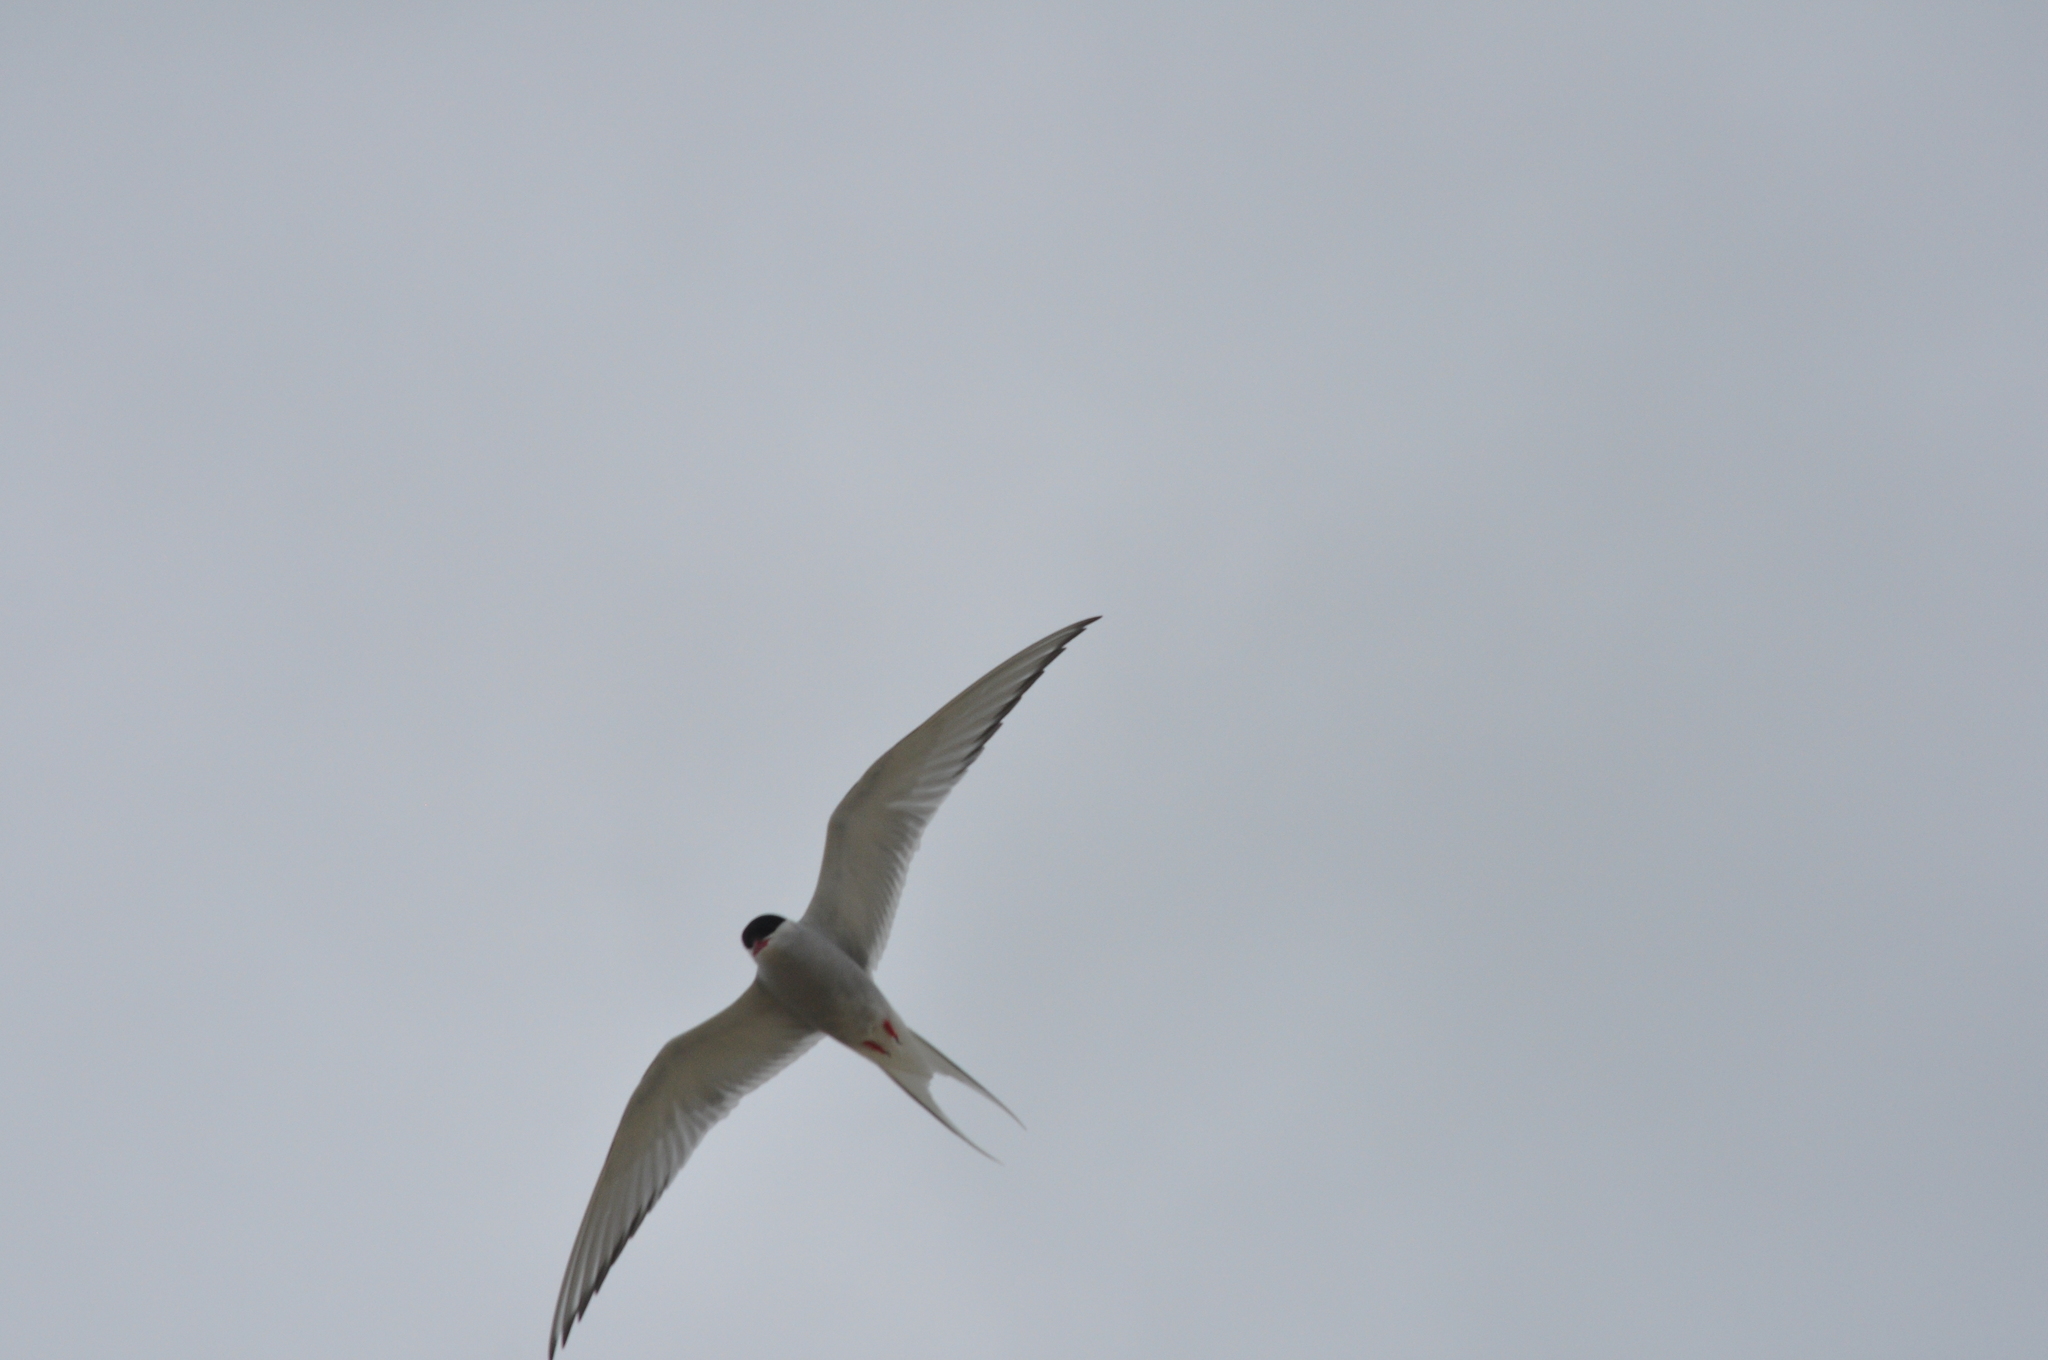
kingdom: Animalia
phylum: Chordata
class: Aves
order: Charadriiformes
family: Laridae
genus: Sterna
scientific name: Sterna paradisaea
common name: Arctic tern
